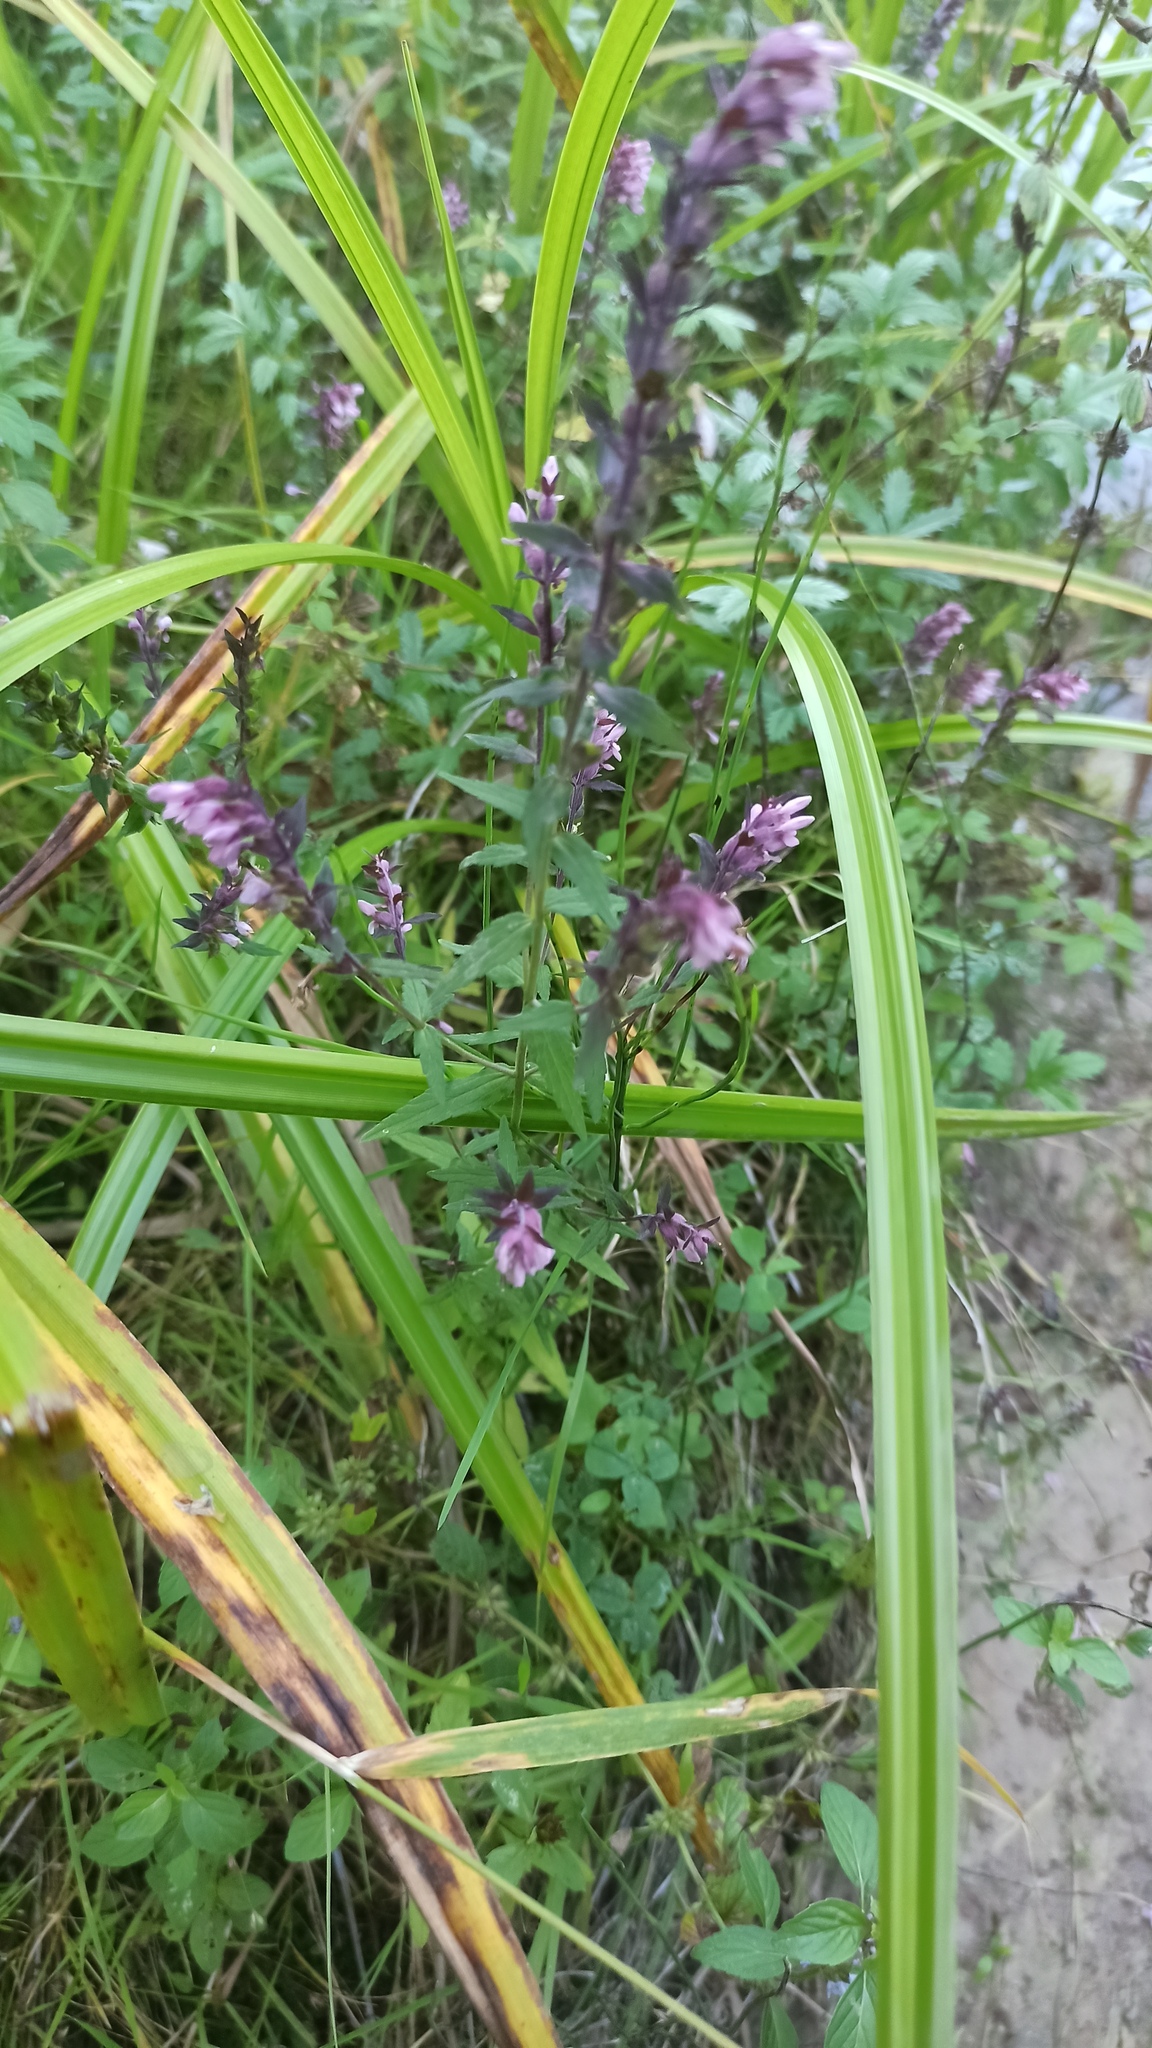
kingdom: Plantae
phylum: Tracheophyta
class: Magnoliopsida
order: Lamiales
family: Orobanchaceae
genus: Odontites
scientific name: Odontites vulgaris
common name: Broomrape
